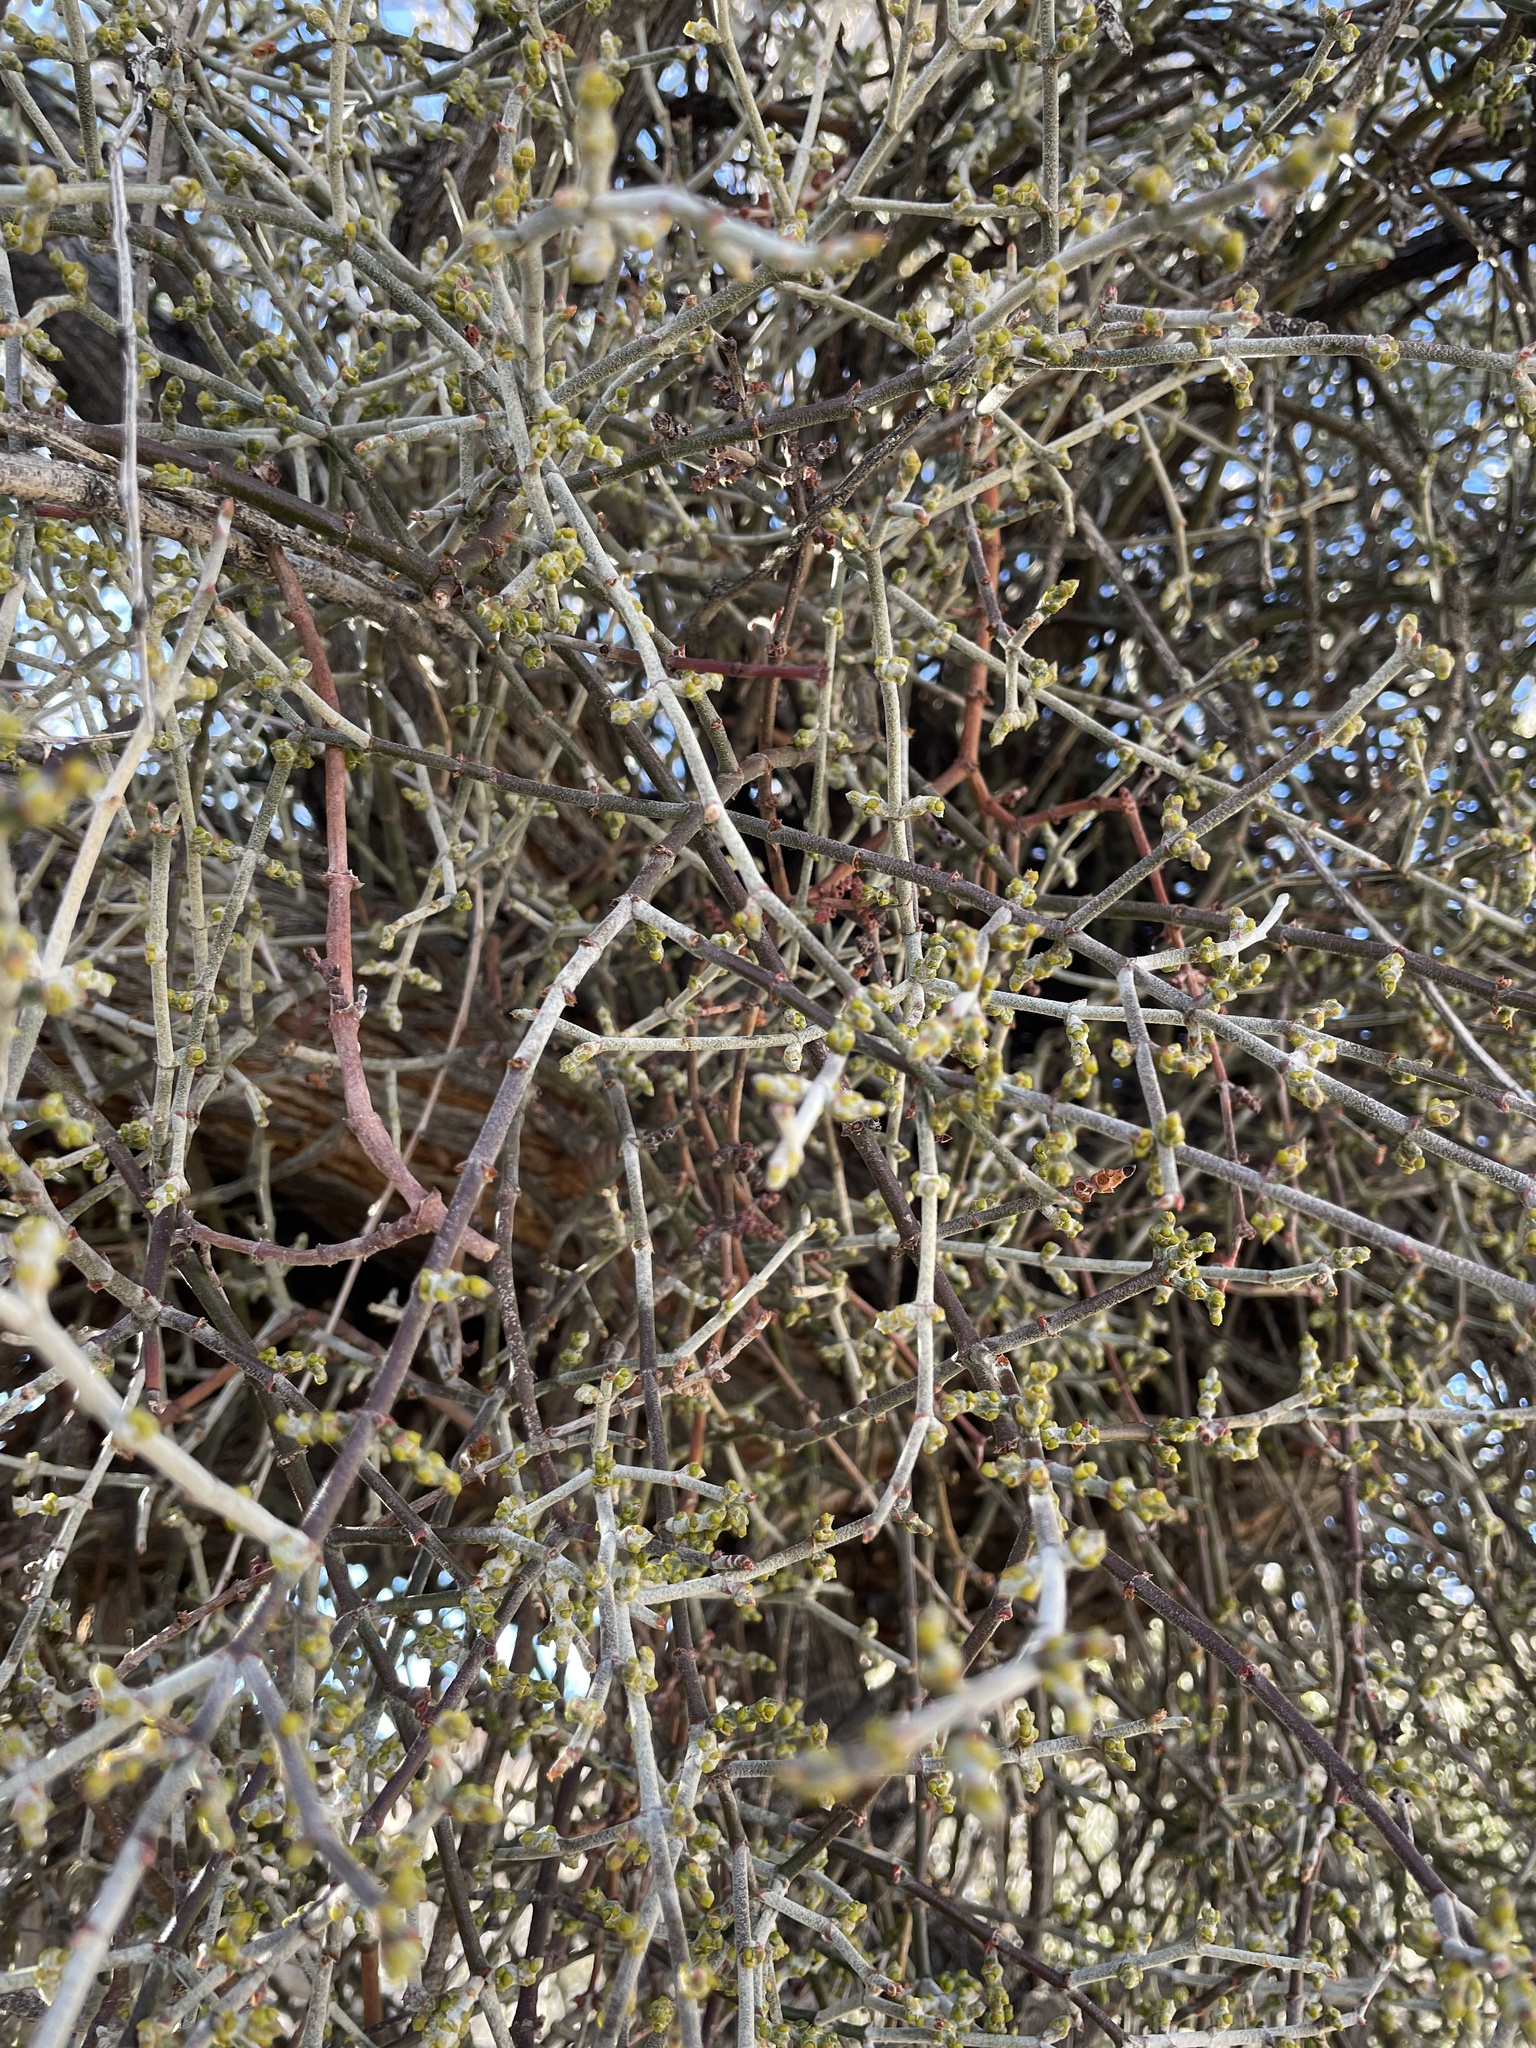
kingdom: Plantae
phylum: Tracheophyta
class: Magnoliopsida
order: Santalales
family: Viscaceae
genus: Phoradendron
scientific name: Phoradendron californicum
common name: Acacia mistletoe
